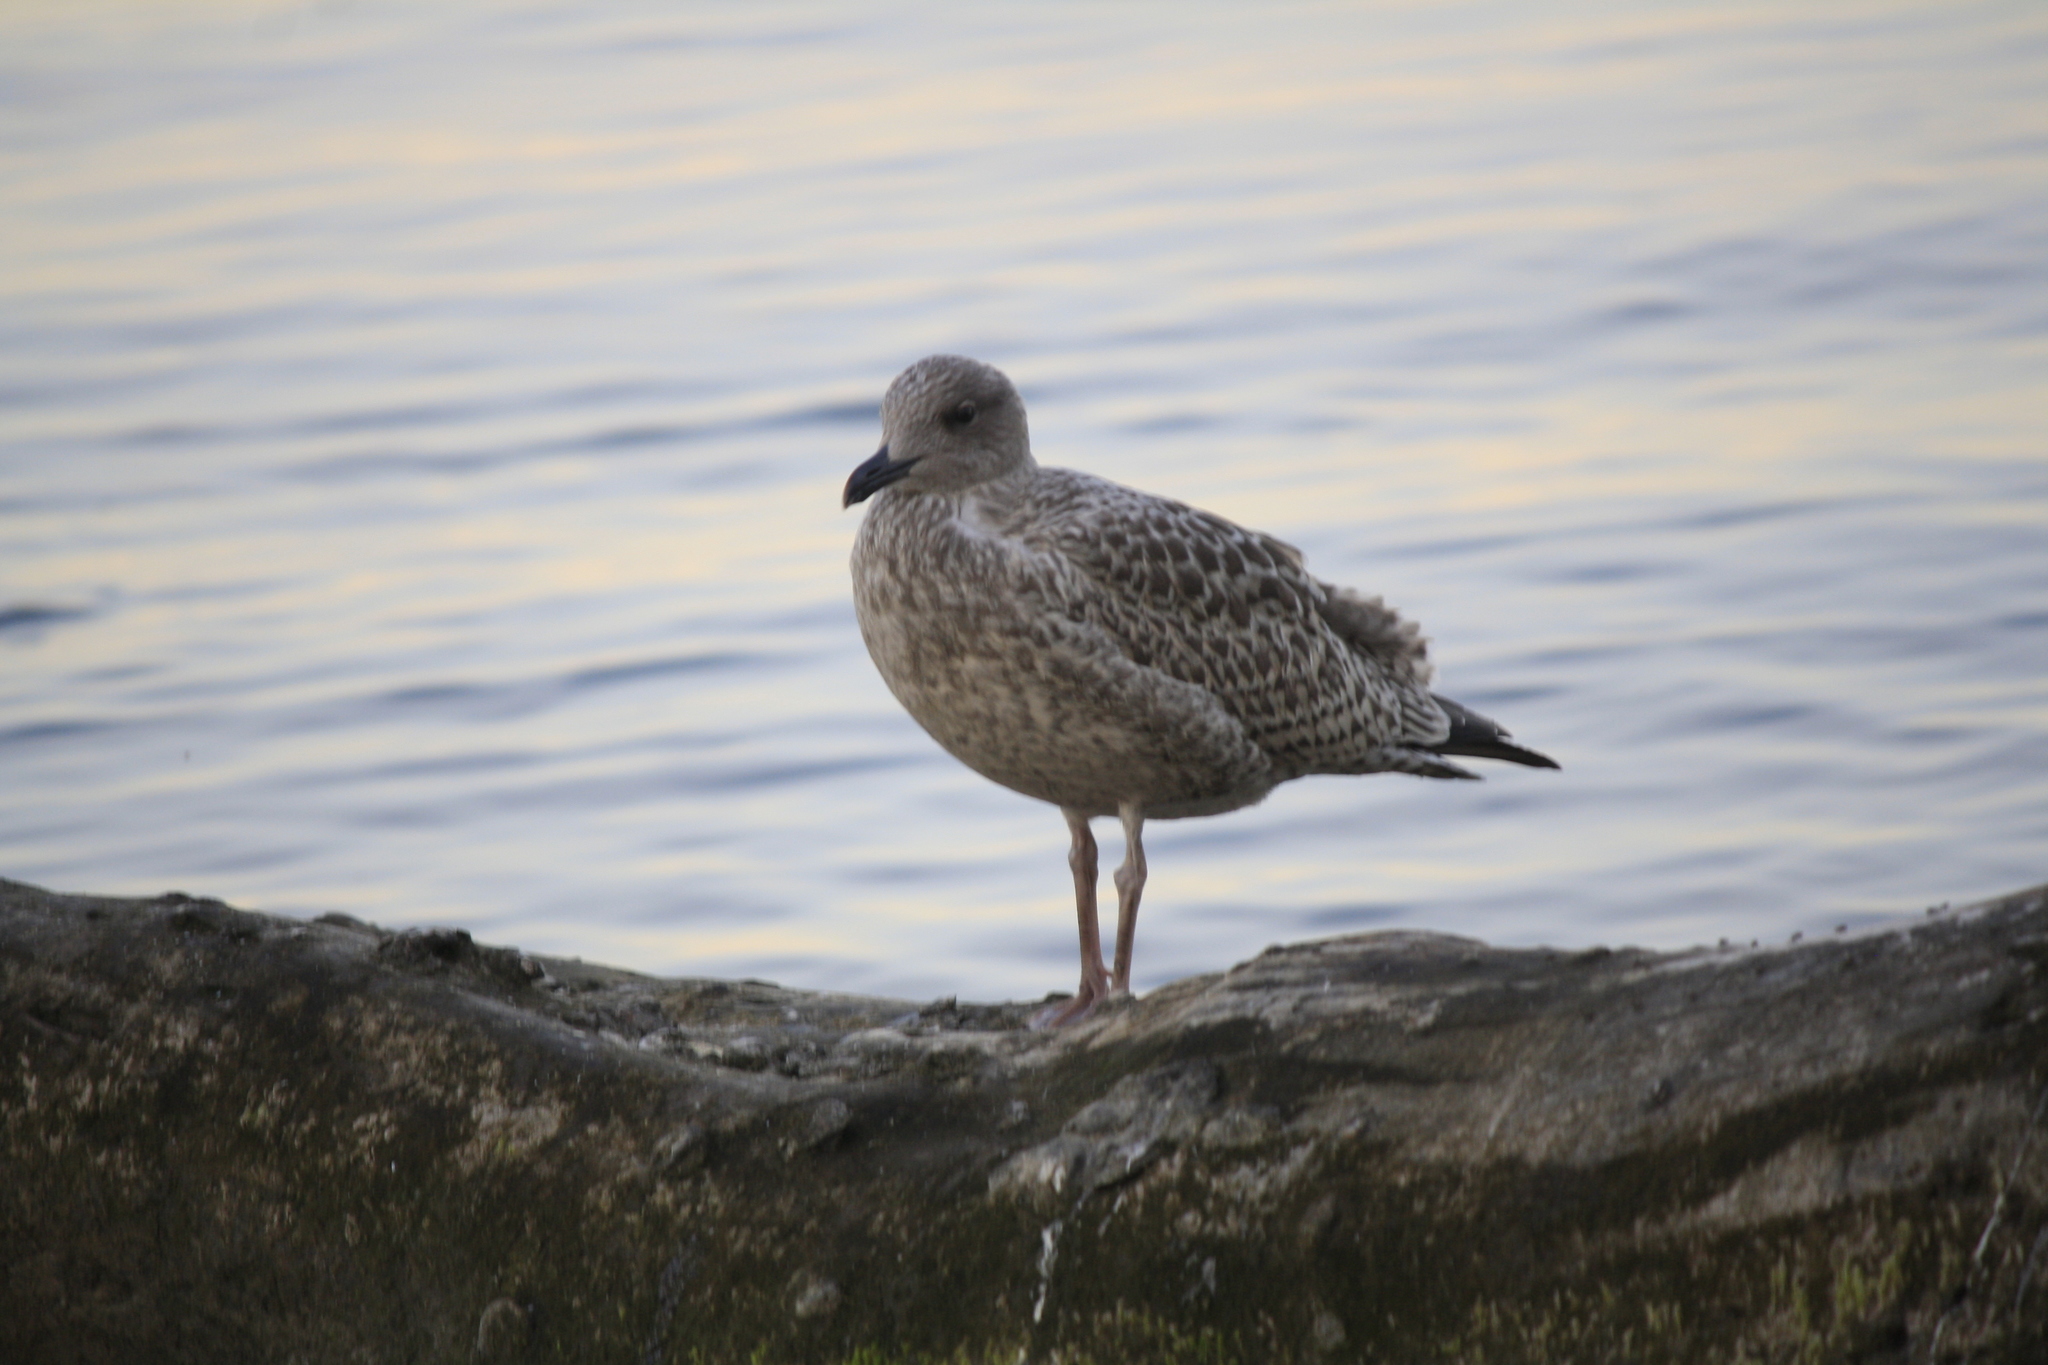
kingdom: Animalia
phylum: Chordata
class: Aves
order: Charadriiformes
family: Laridae
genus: Larus
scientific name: Larus argentatus
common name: Herring gull
